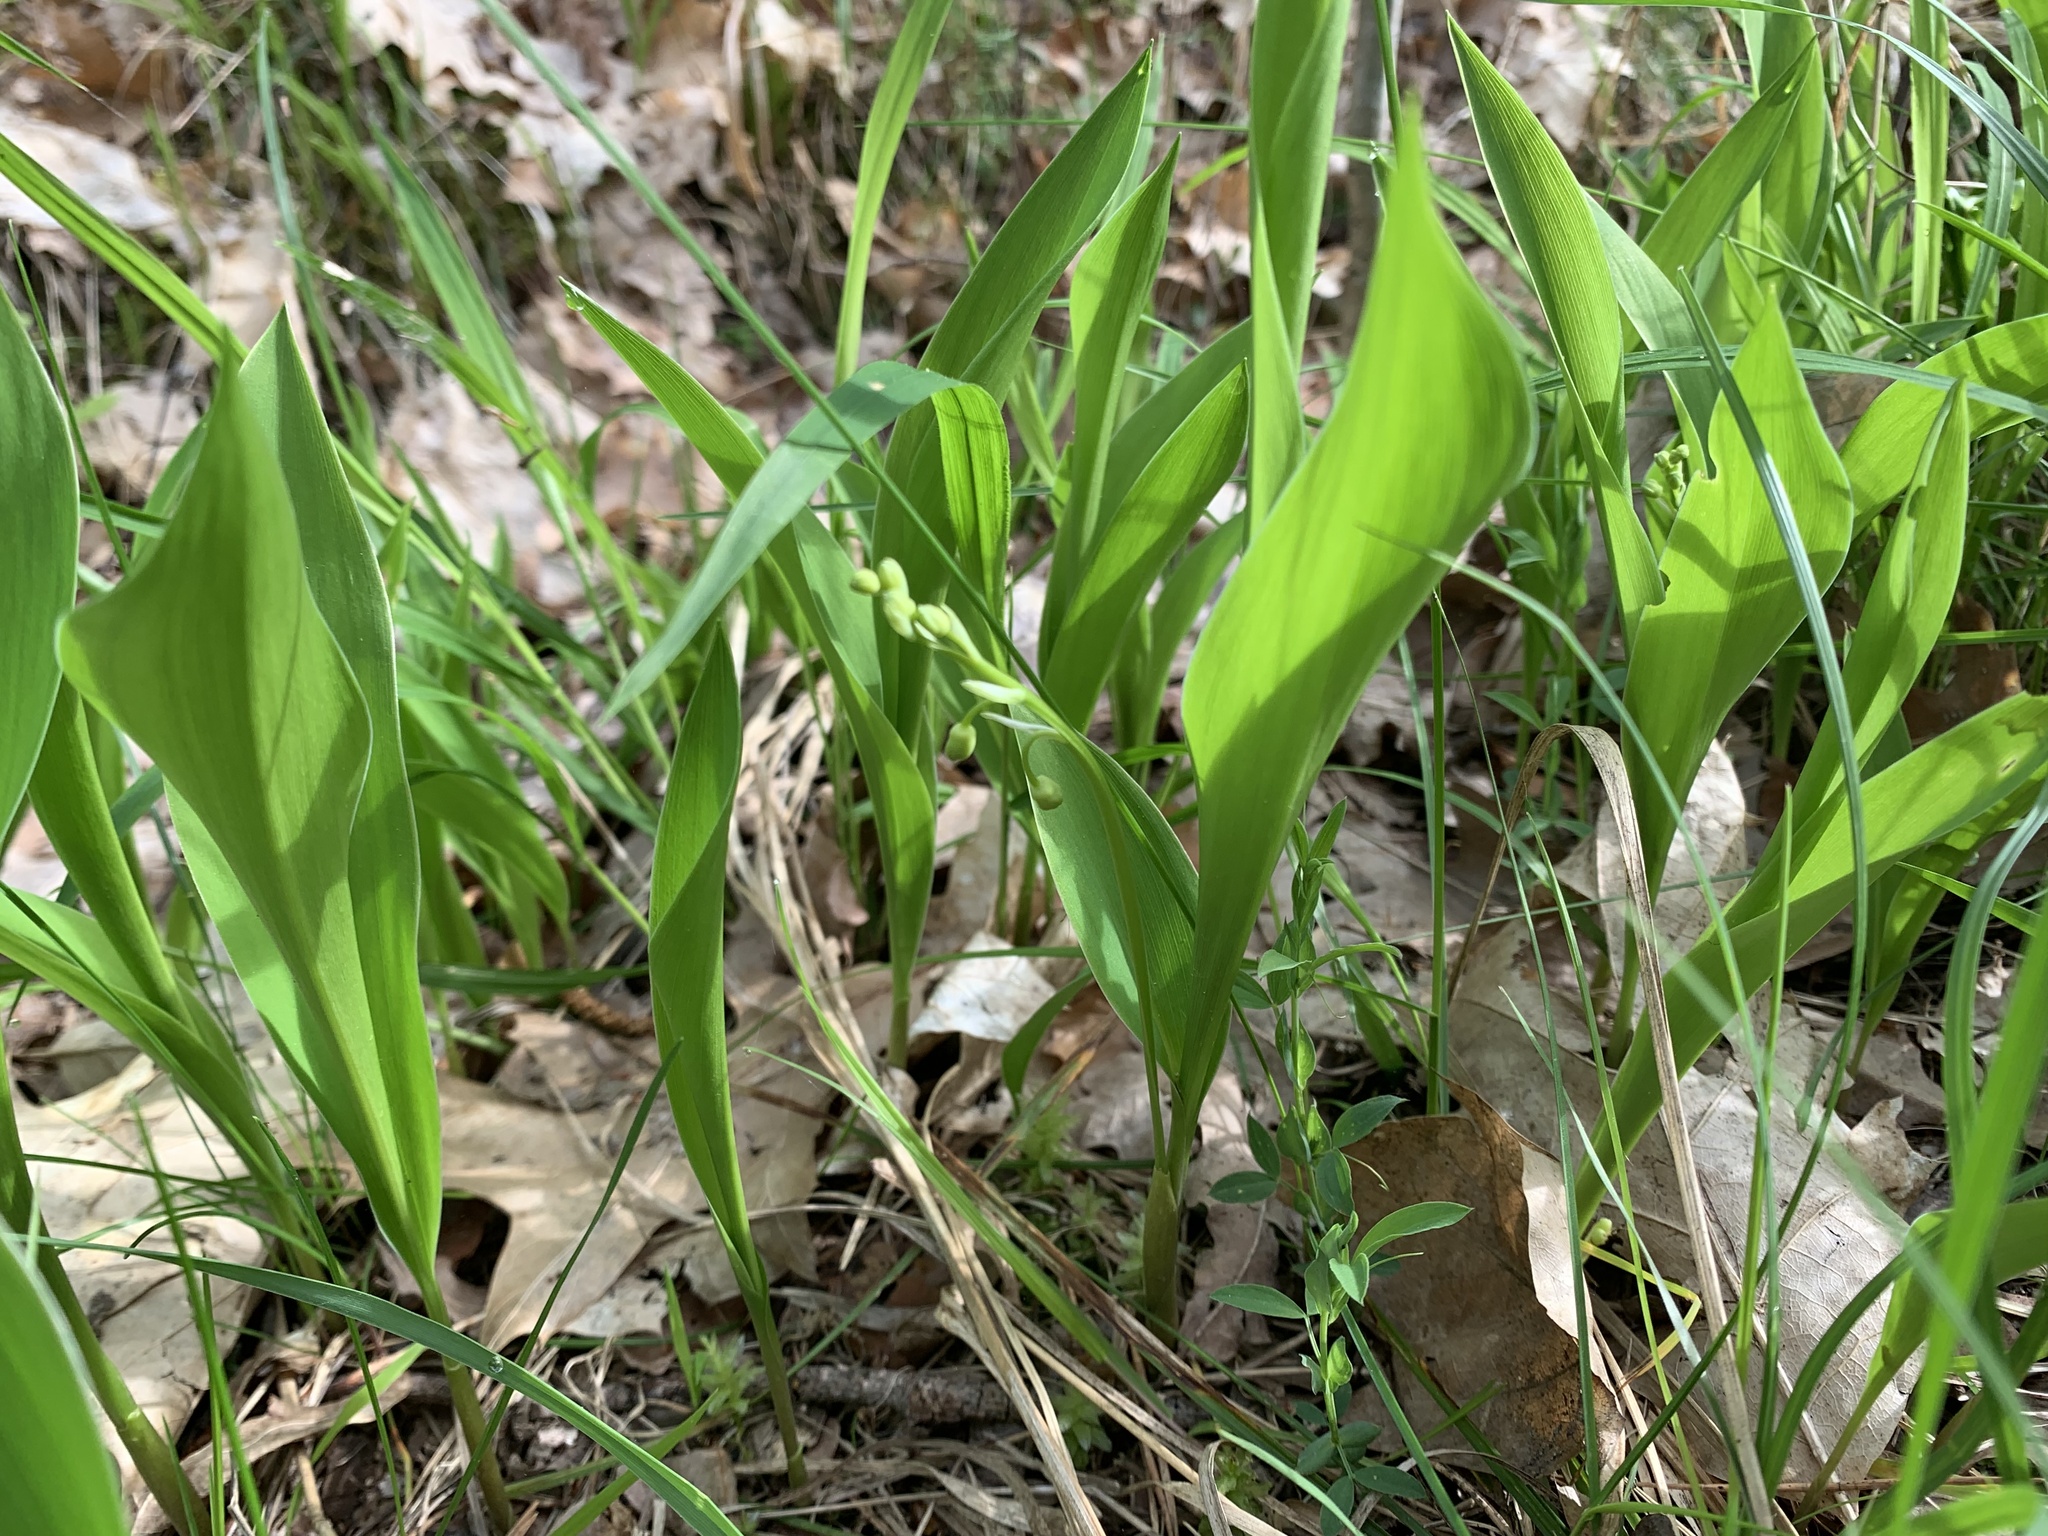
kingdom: Plantae
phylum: Tracheophyta
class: Liliopsida
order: Asparagales
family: Asparagaceae
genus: Convallaria
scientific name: Convallaria majalis
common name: Lily-of-the-valley
